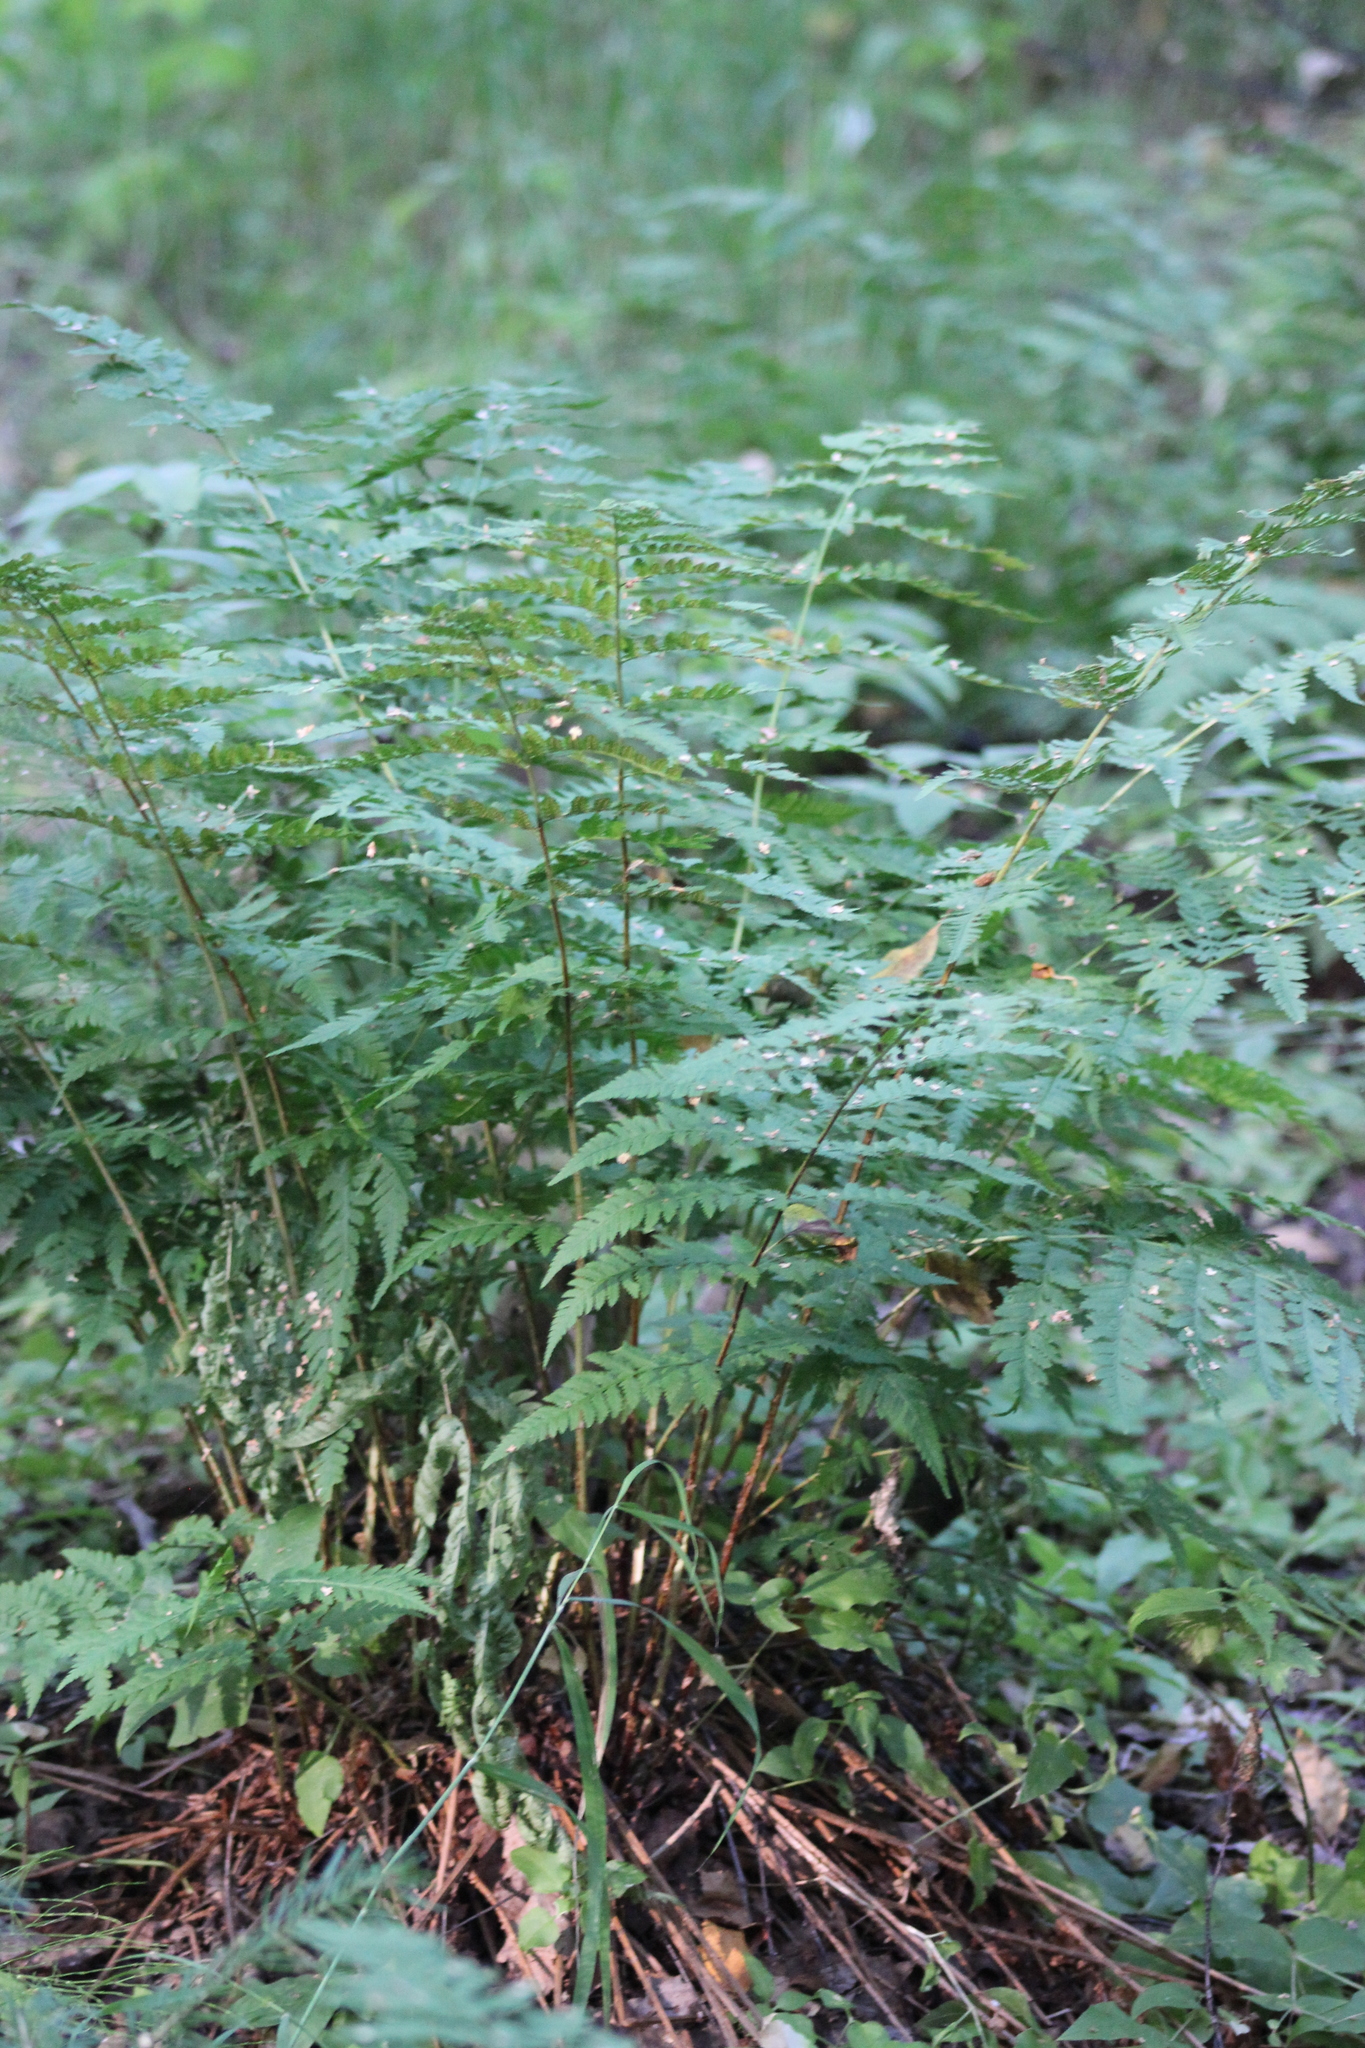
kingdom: Plantae
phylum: Tracheophyta
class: Polypodiopsida
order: Polypodiales
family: Dryopteridaceae
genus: Dryopteris
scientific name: Dryopteris carthusiana
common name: Narrow buckler-fern
